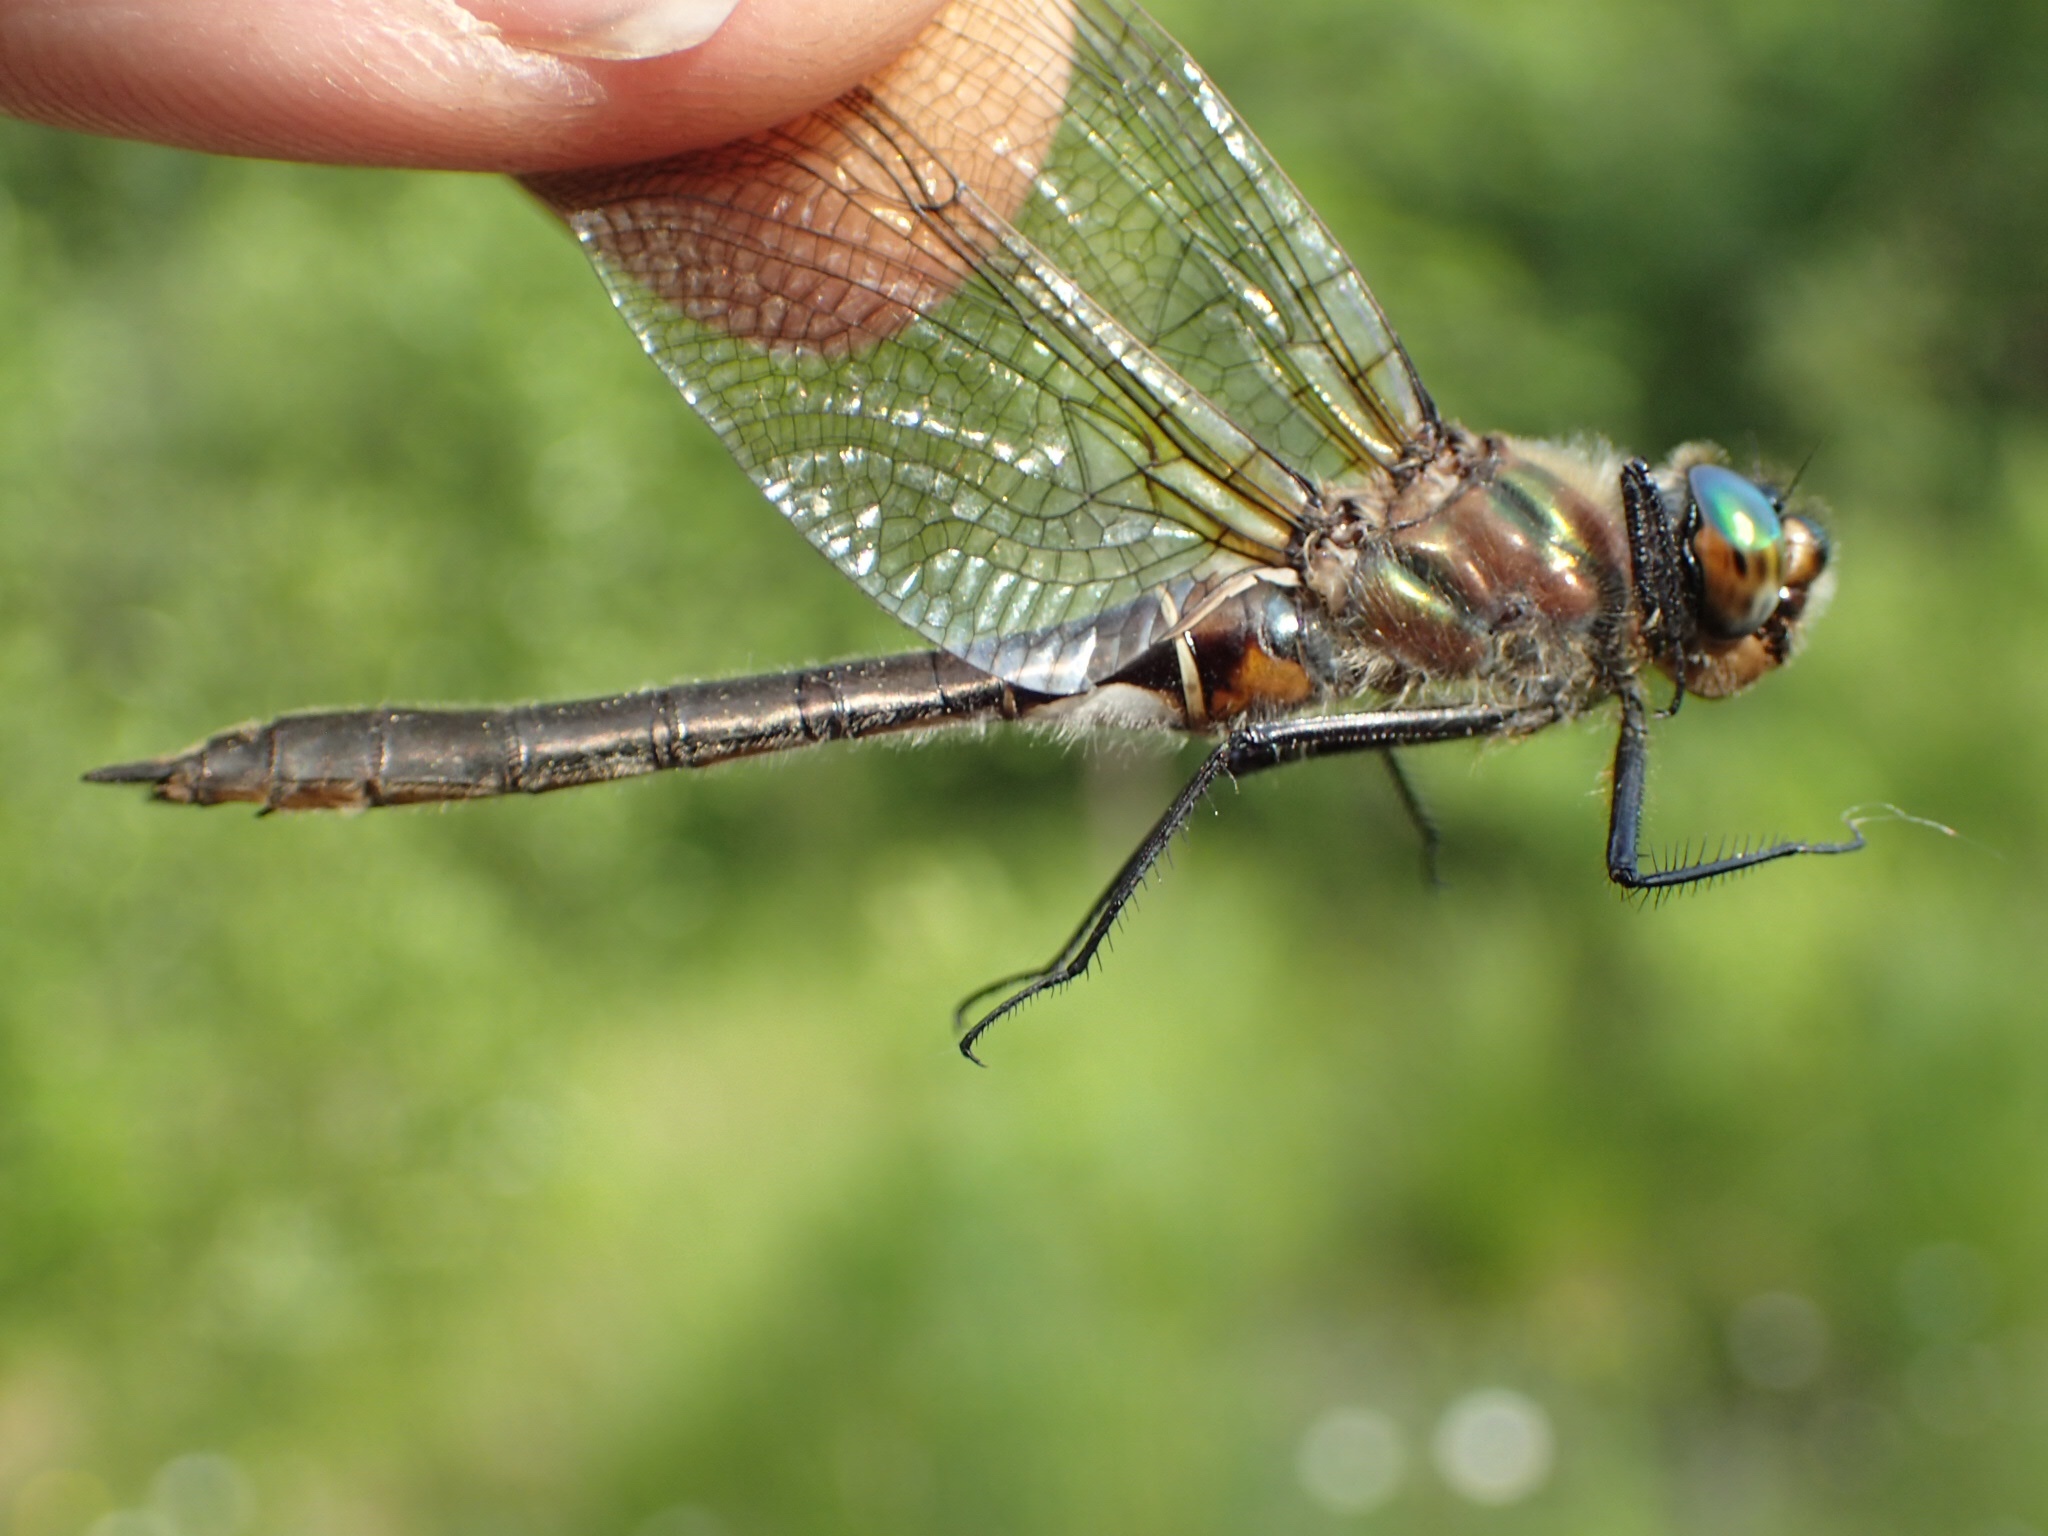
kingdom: Animalia
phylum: Arthropoda
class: Insecta
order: Odonata
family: Corduliidae
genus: Cordulia
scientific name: Cordulia shurtleffii
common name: American emerald
